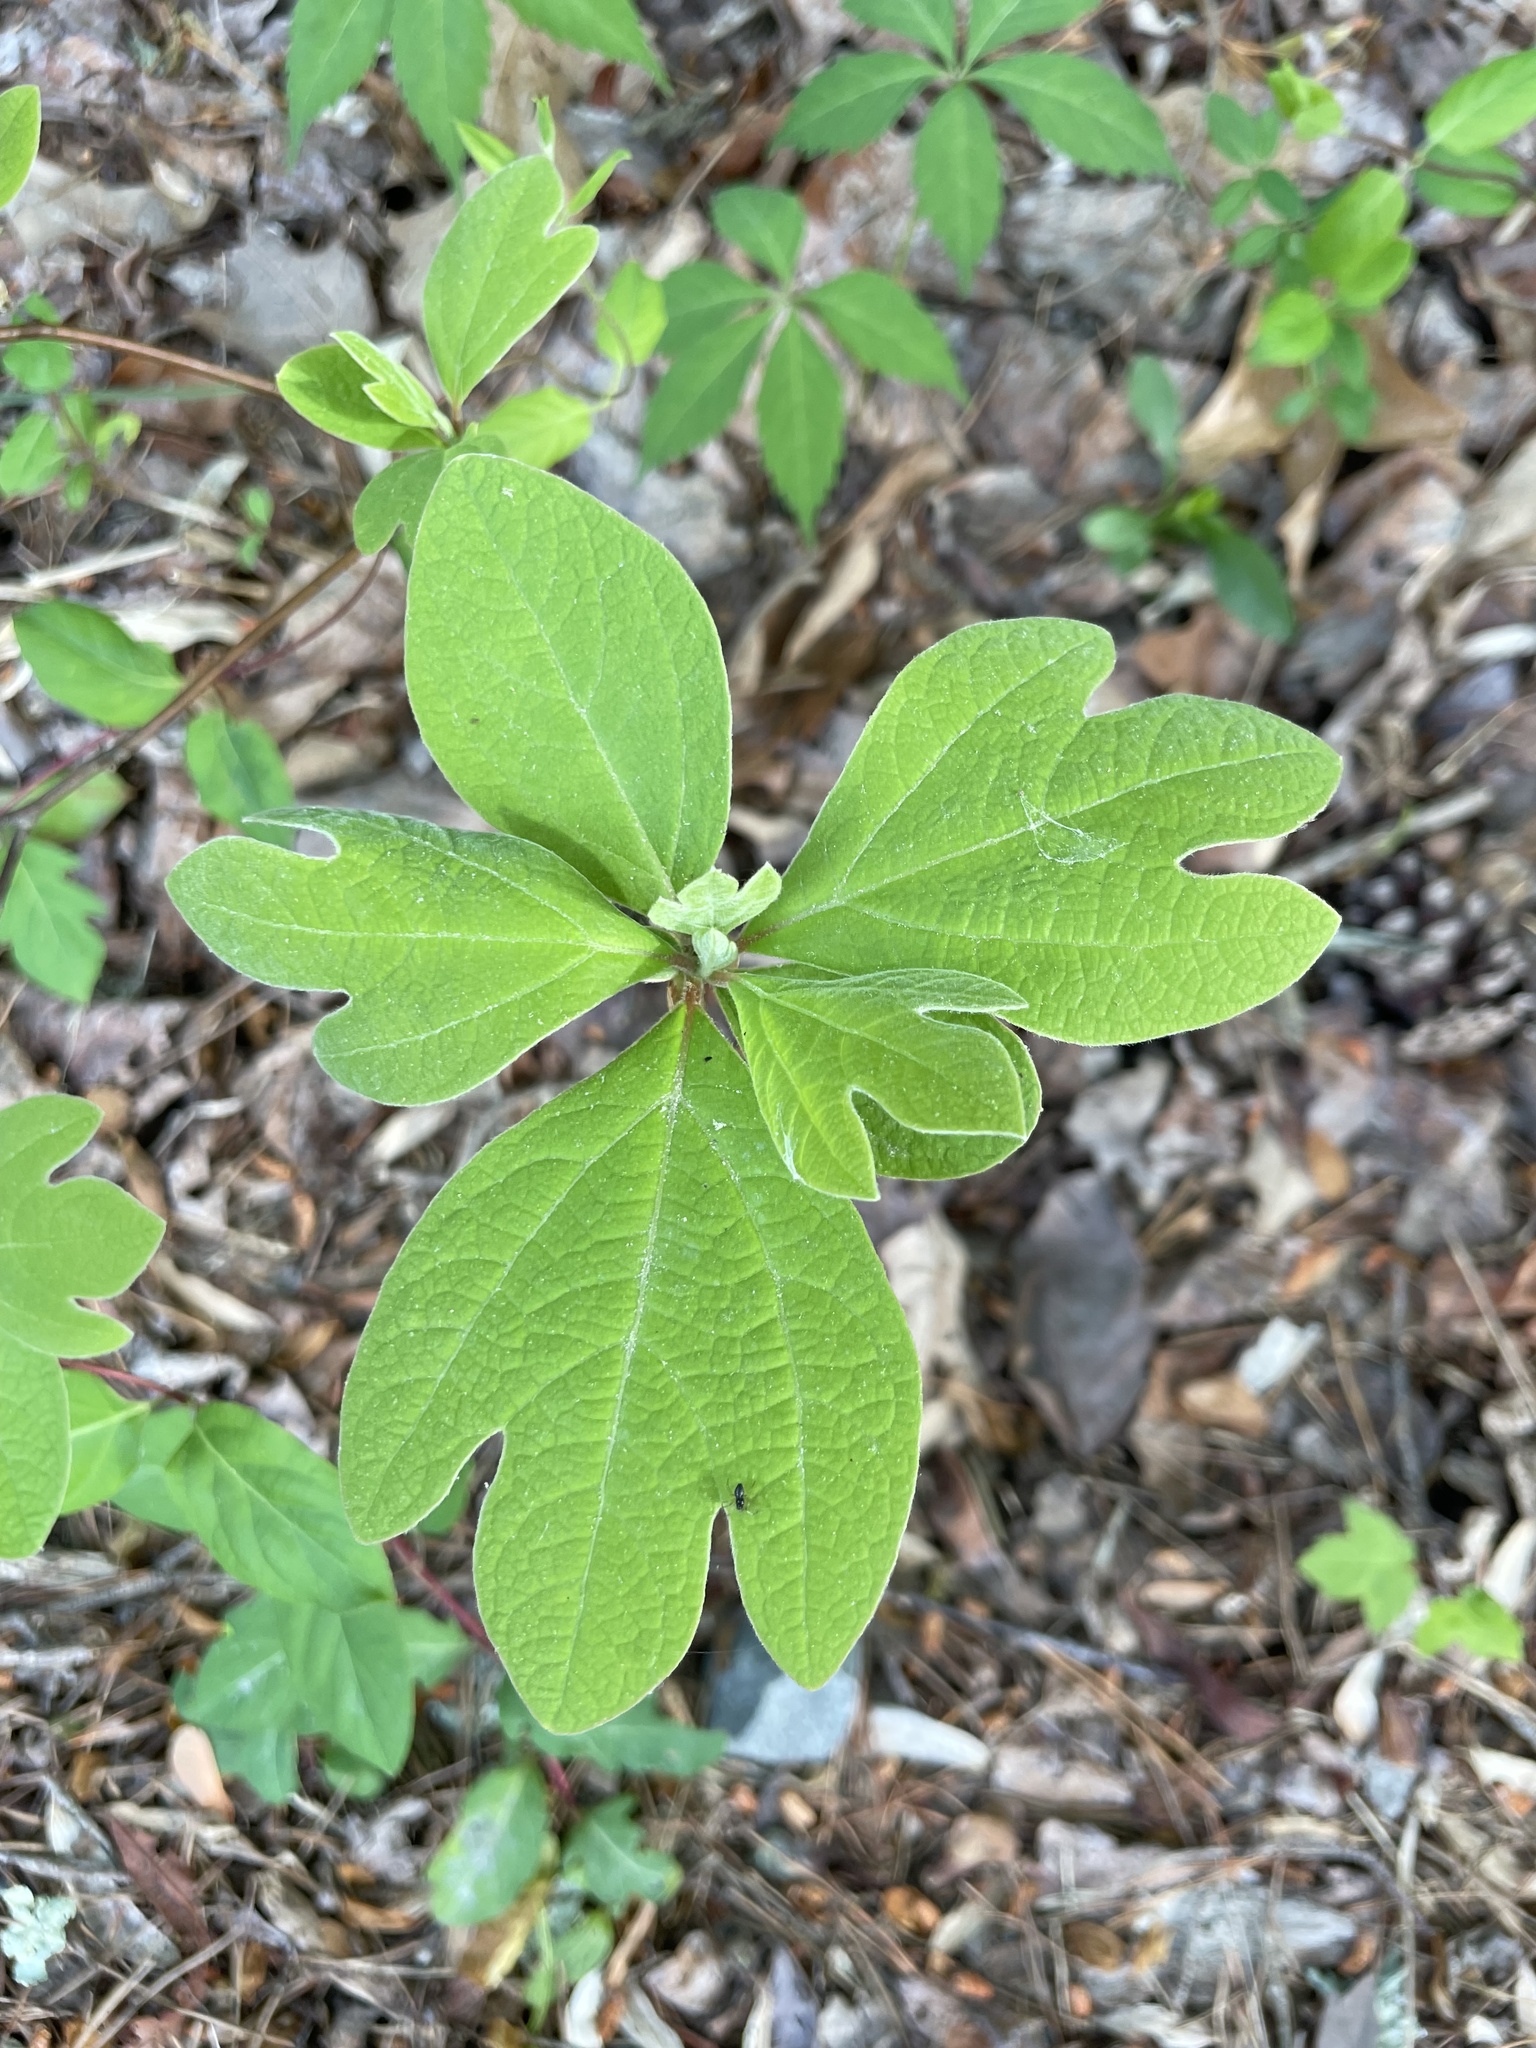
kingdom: Plantae
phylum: Tracheophyta
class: Magnoliopsida
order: Laurales
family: Lauraceae
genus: Sassafras
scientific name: Sassafras albidum
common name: Sassafras
